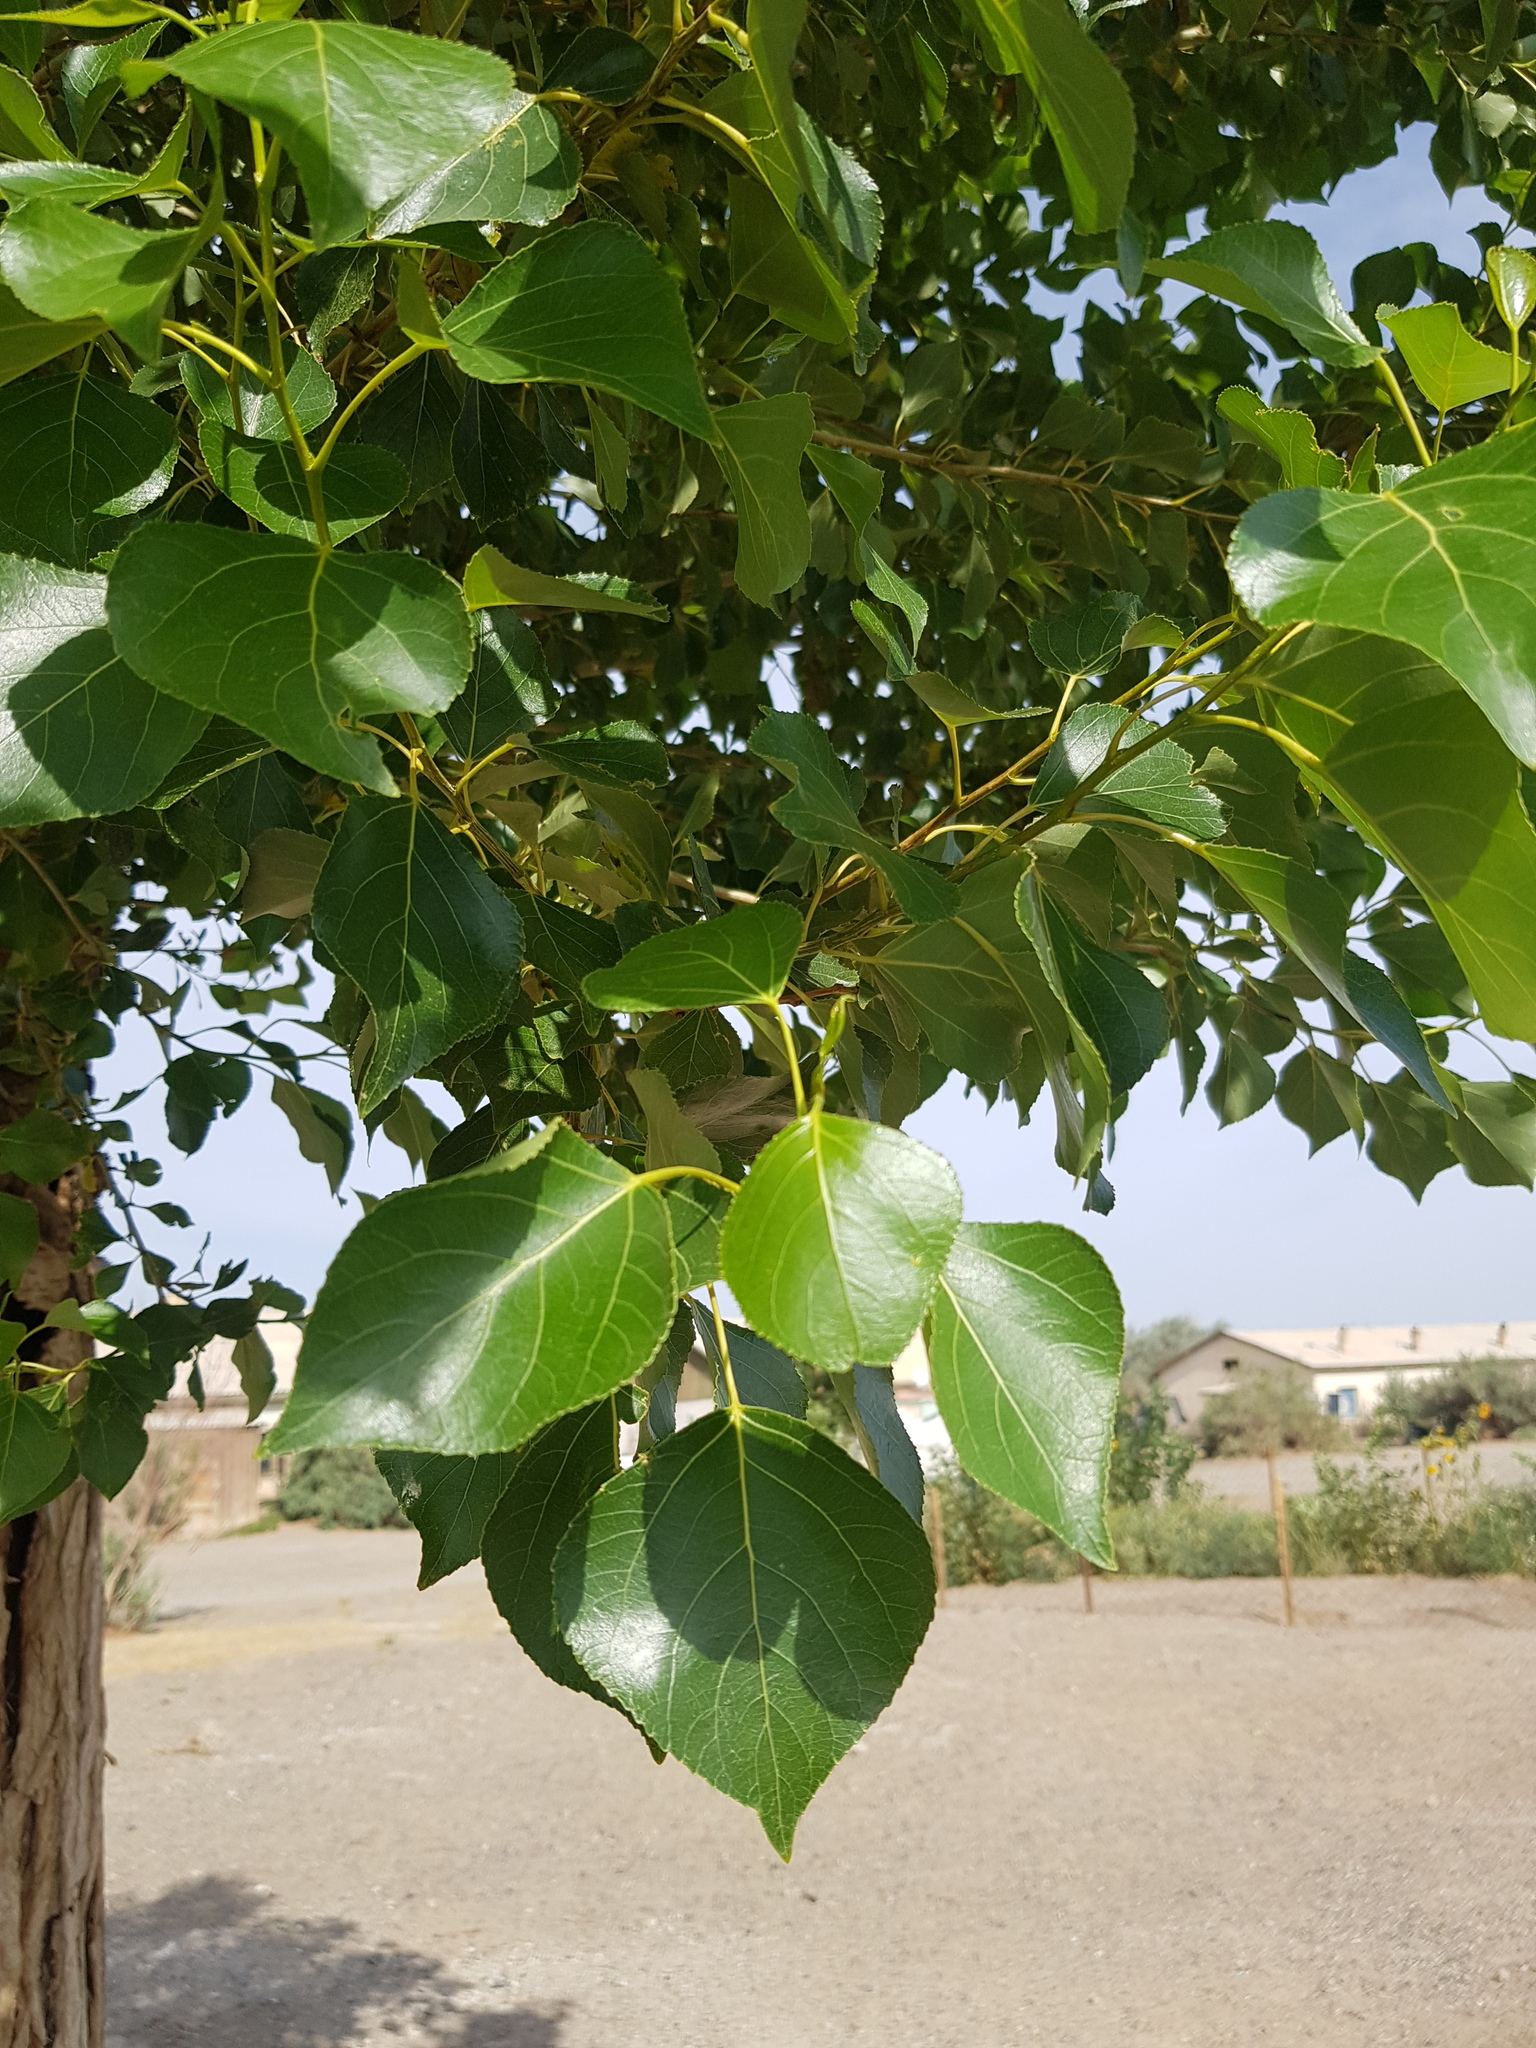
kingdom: Plantae
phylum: Tracheophyta
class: Magnoliopsida
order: Malpighiales
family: Salicaceae
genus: Populus
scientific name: Populus nigra
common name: Black poplar
